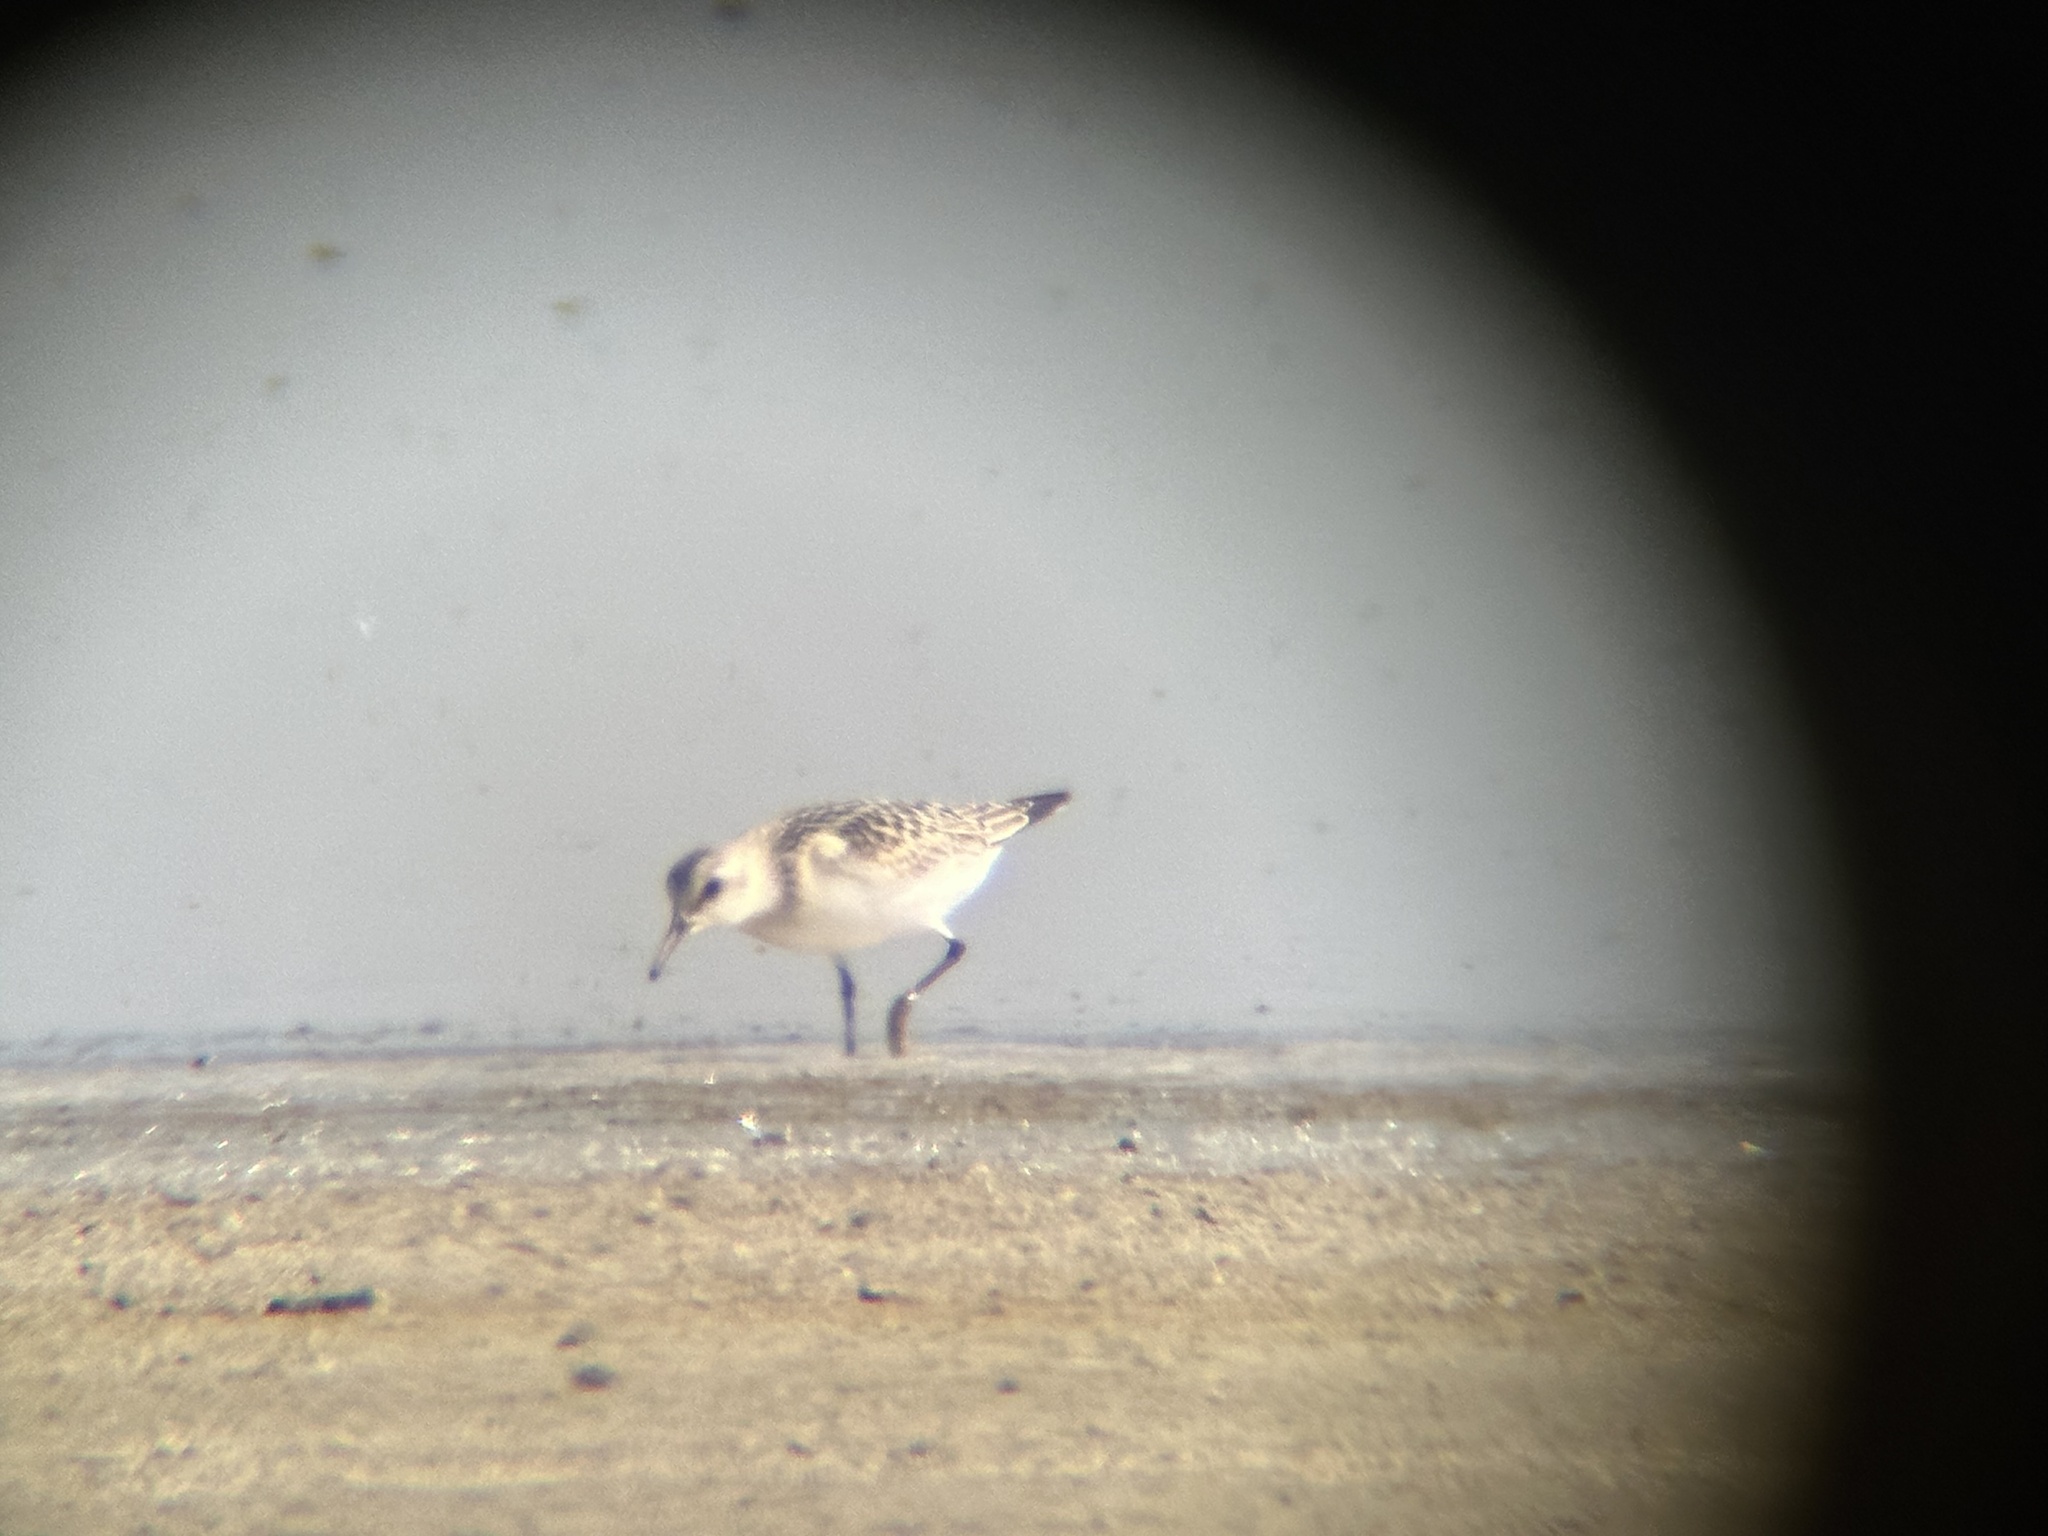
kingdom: Animalia
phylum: Chordata
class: Aves
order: Charadriiformes
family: Scolopacidae
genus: Calidris
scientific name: Calidris alba
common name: Sanderling
